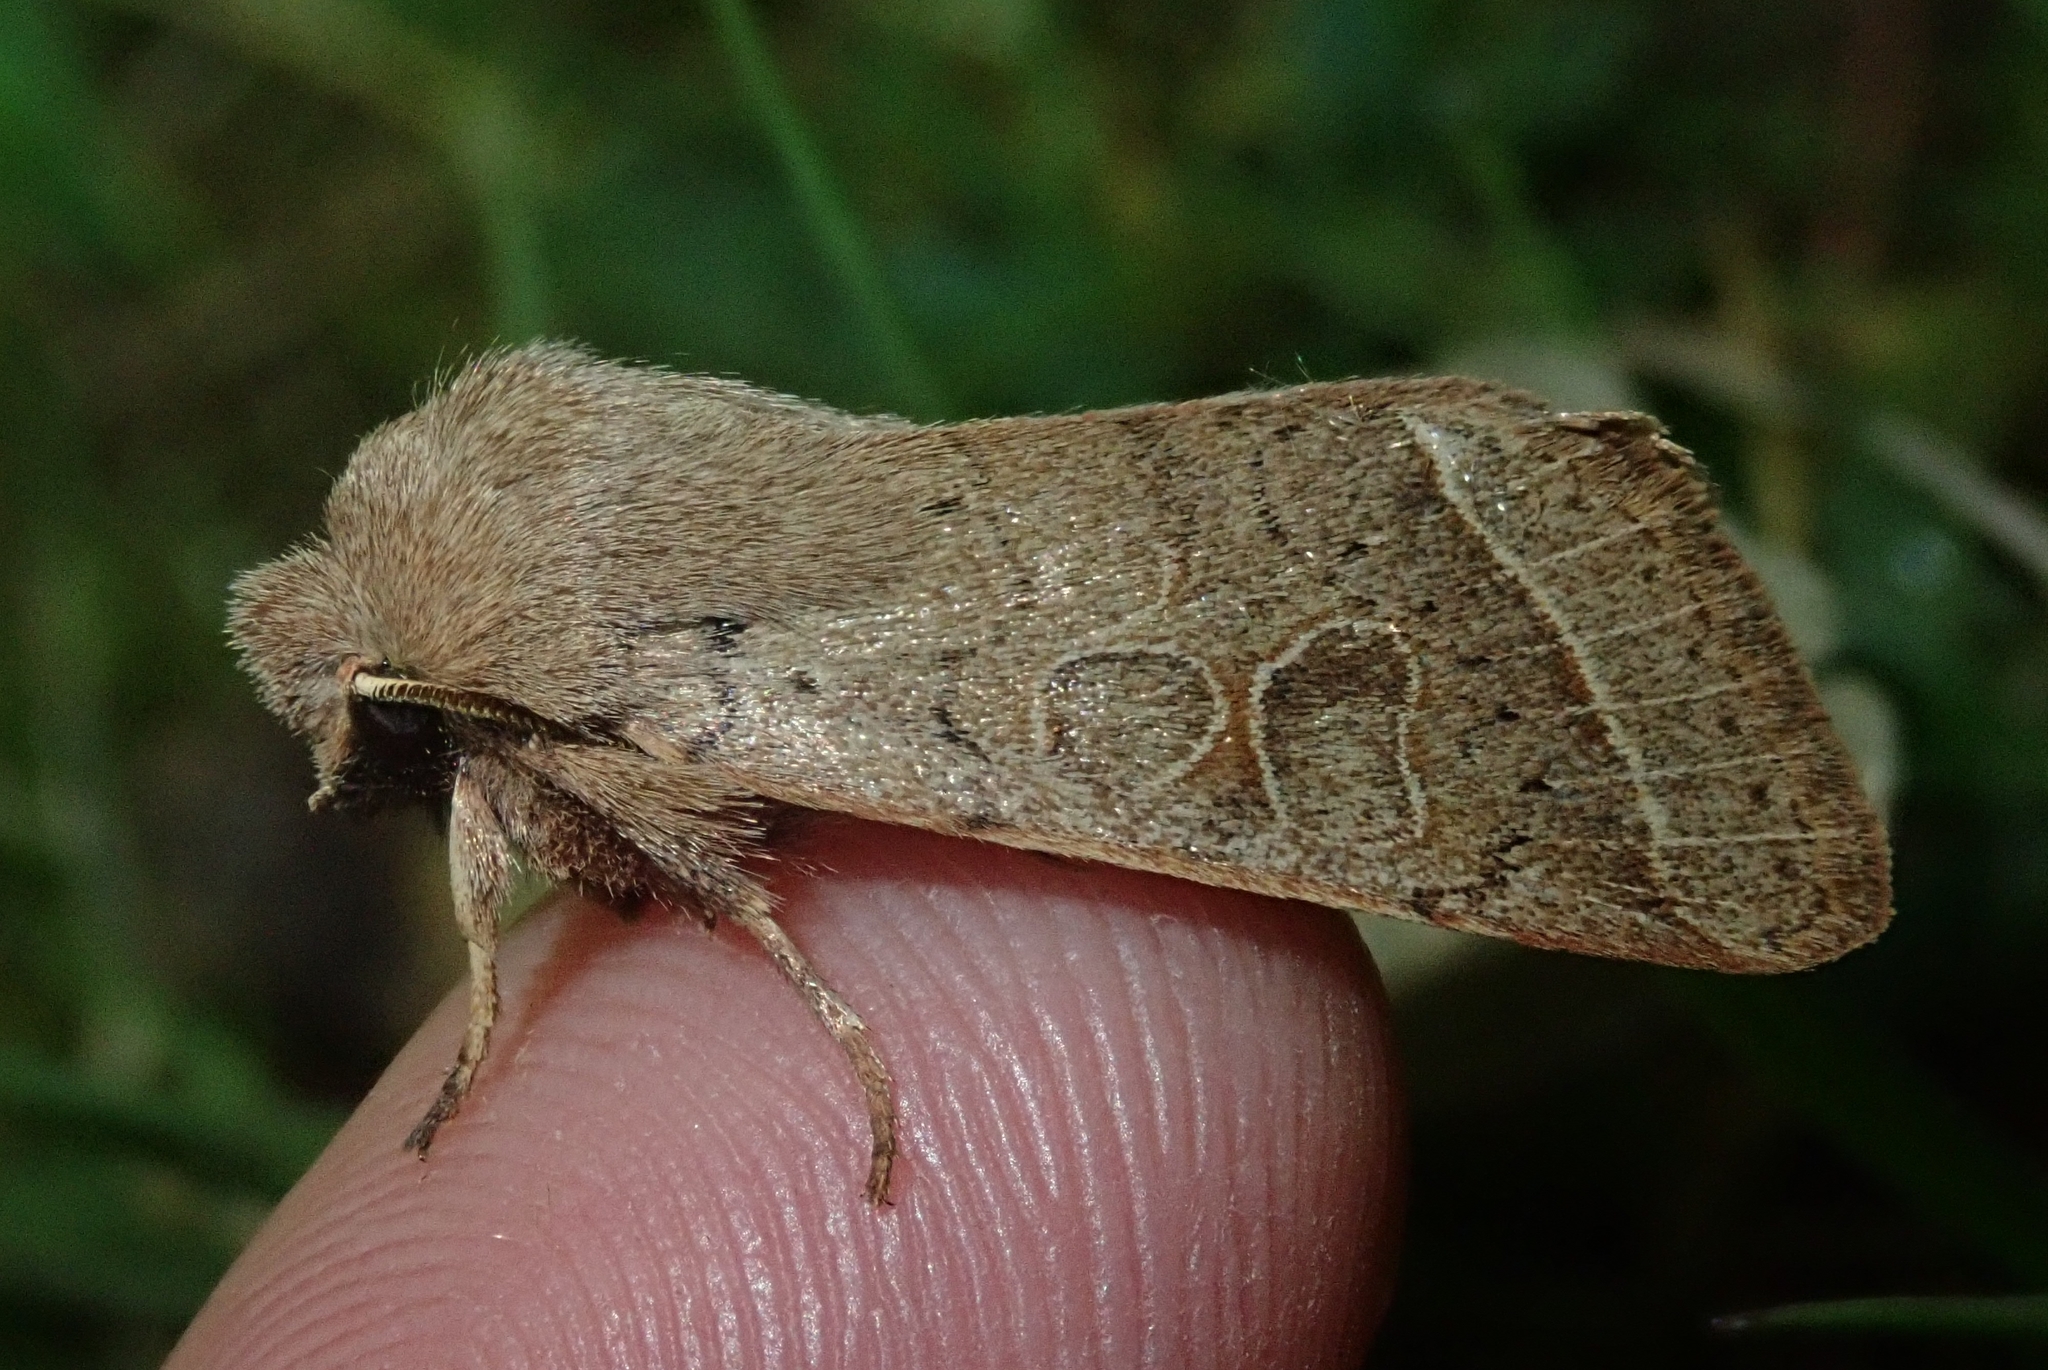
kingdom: Animalia
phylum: Arthropoda
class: Insecta
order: Lepidoptera
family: Noctuidae
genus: Orthosia
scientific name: Orthosia cerasi
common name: Common quaker
